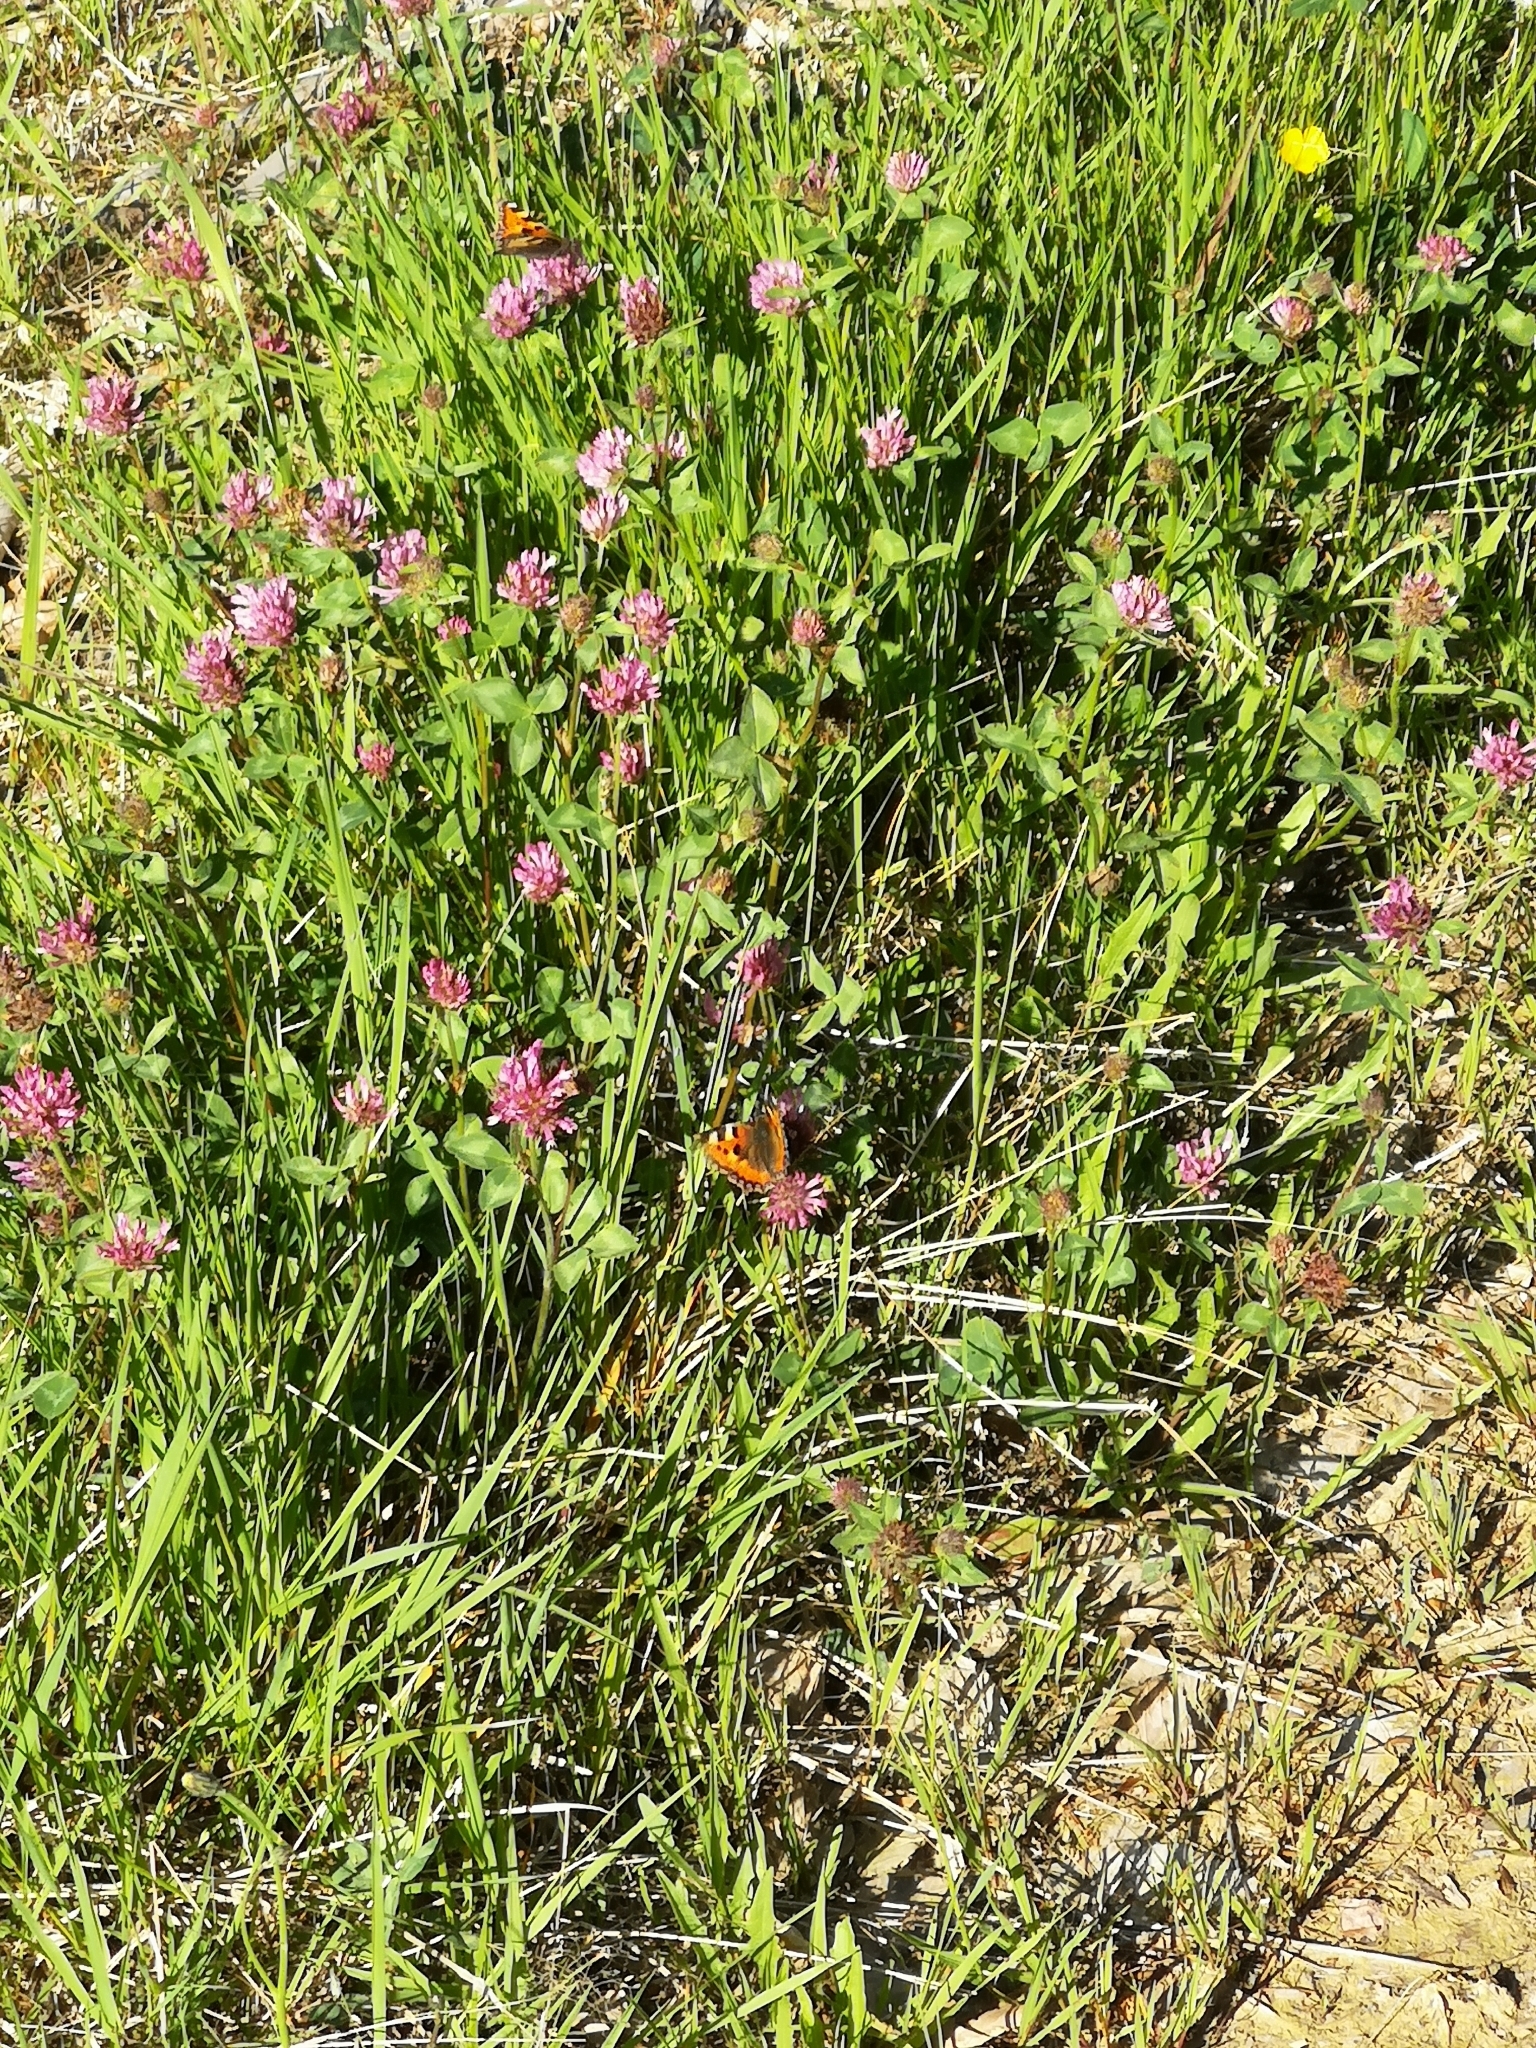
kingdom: Animalia
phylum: Arthropoda
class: Insecta
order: Lepidoptera
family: Nymphalidae
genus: Aglais
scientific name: Aglais urticae
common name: Small tortoiseshell
